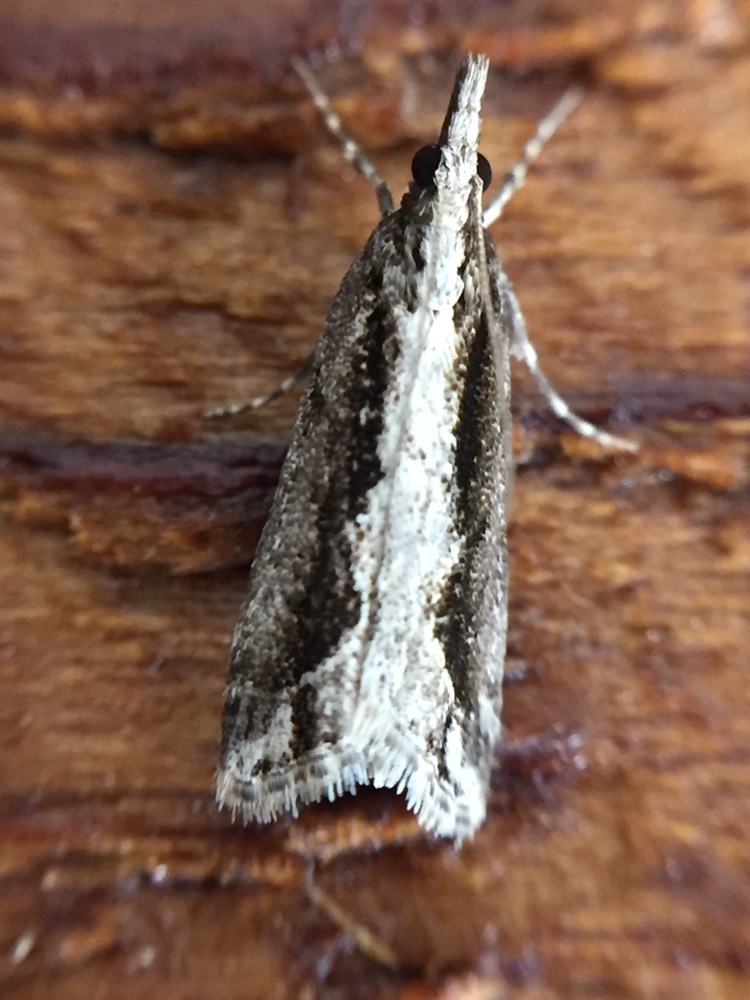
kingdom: Animalia
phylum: Arthropoda
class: Insecta
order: Lepidoptera
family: Crambidae
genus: Eudonia
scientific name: Eudonia steropaea
